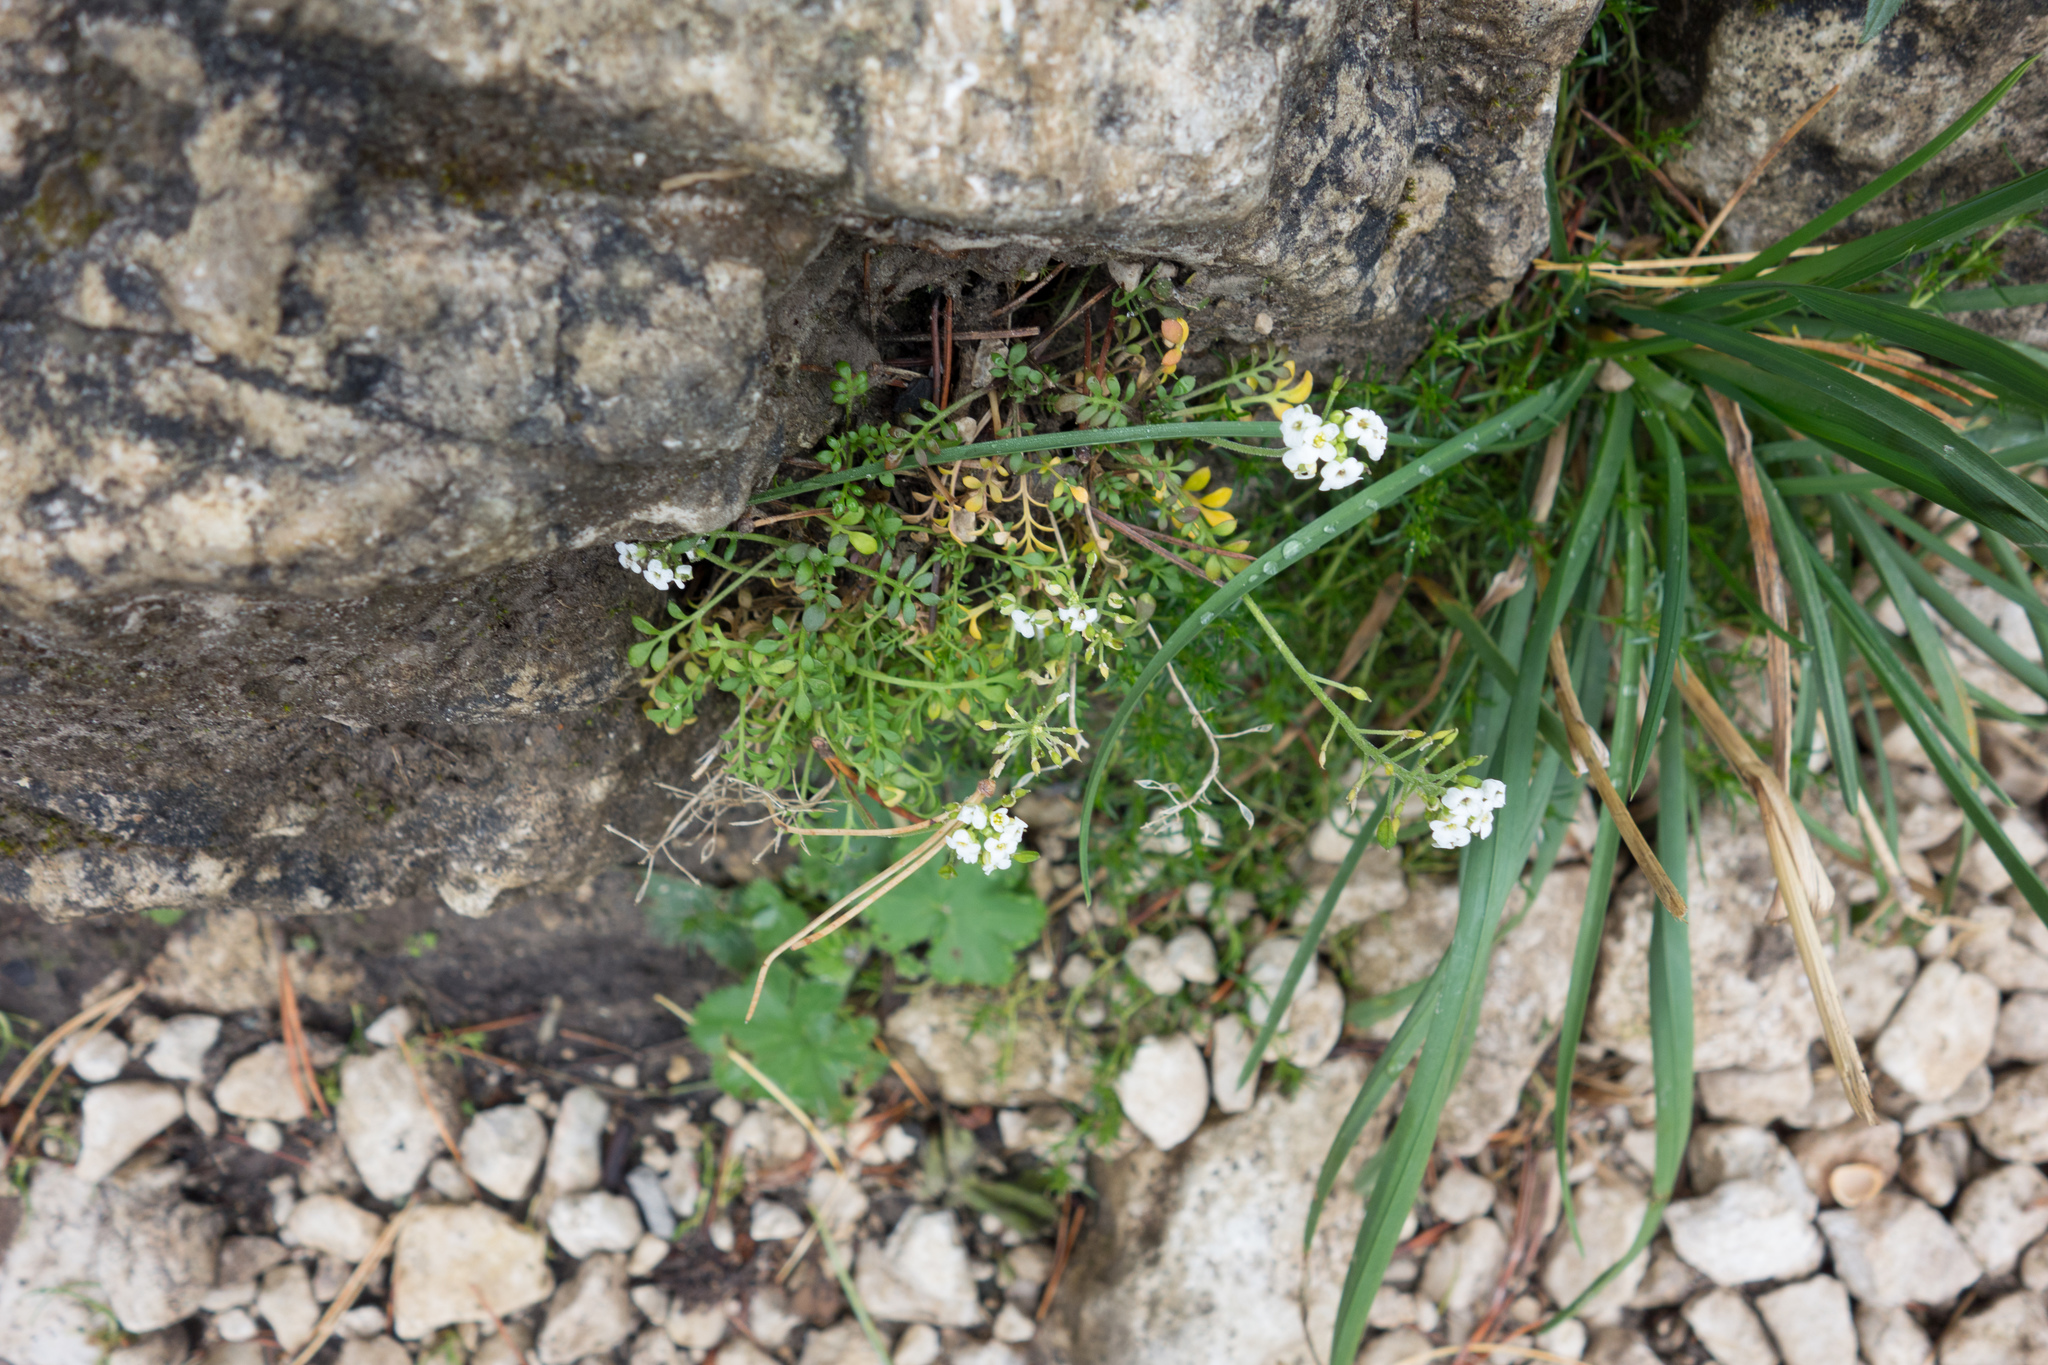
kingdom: Plantae
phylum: Tracheophyta
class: Magnoliopsida
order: Brassicales
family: Brassicaceae
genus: Hornungia
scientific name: Hornungia alpina
